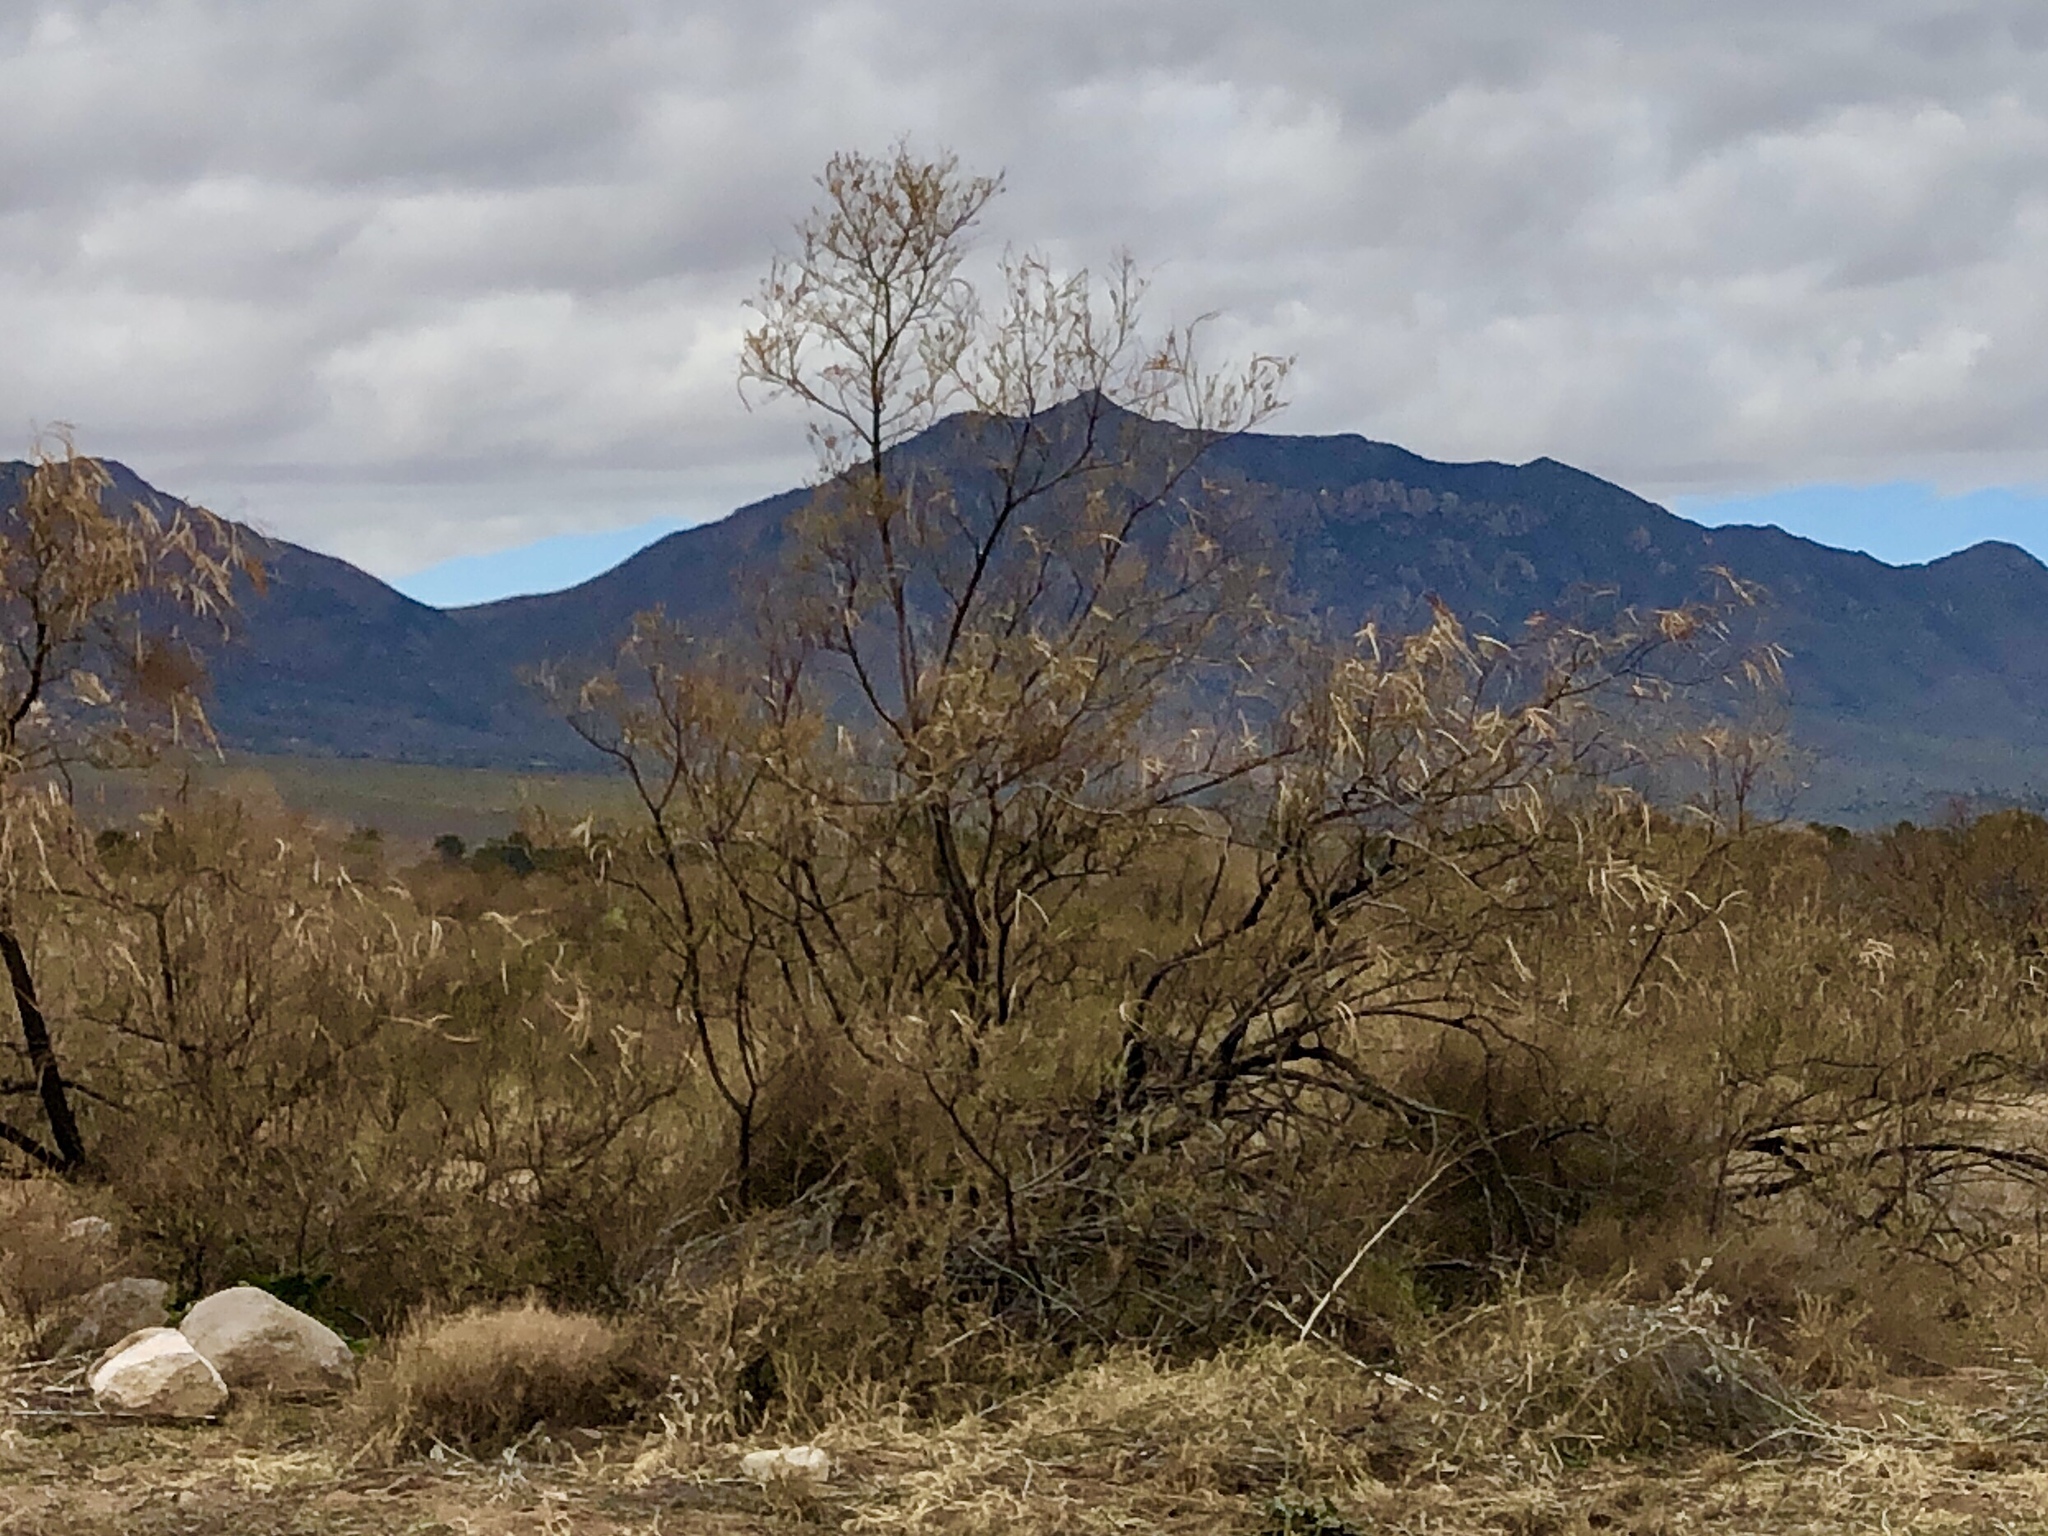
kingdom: Plantae
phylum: Tracheophyta
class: Magnoliopsida
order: Lamiales
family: Bignoniaceae
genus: Chilopsis
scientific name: Chilopsis linearis
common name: Desert-willow
